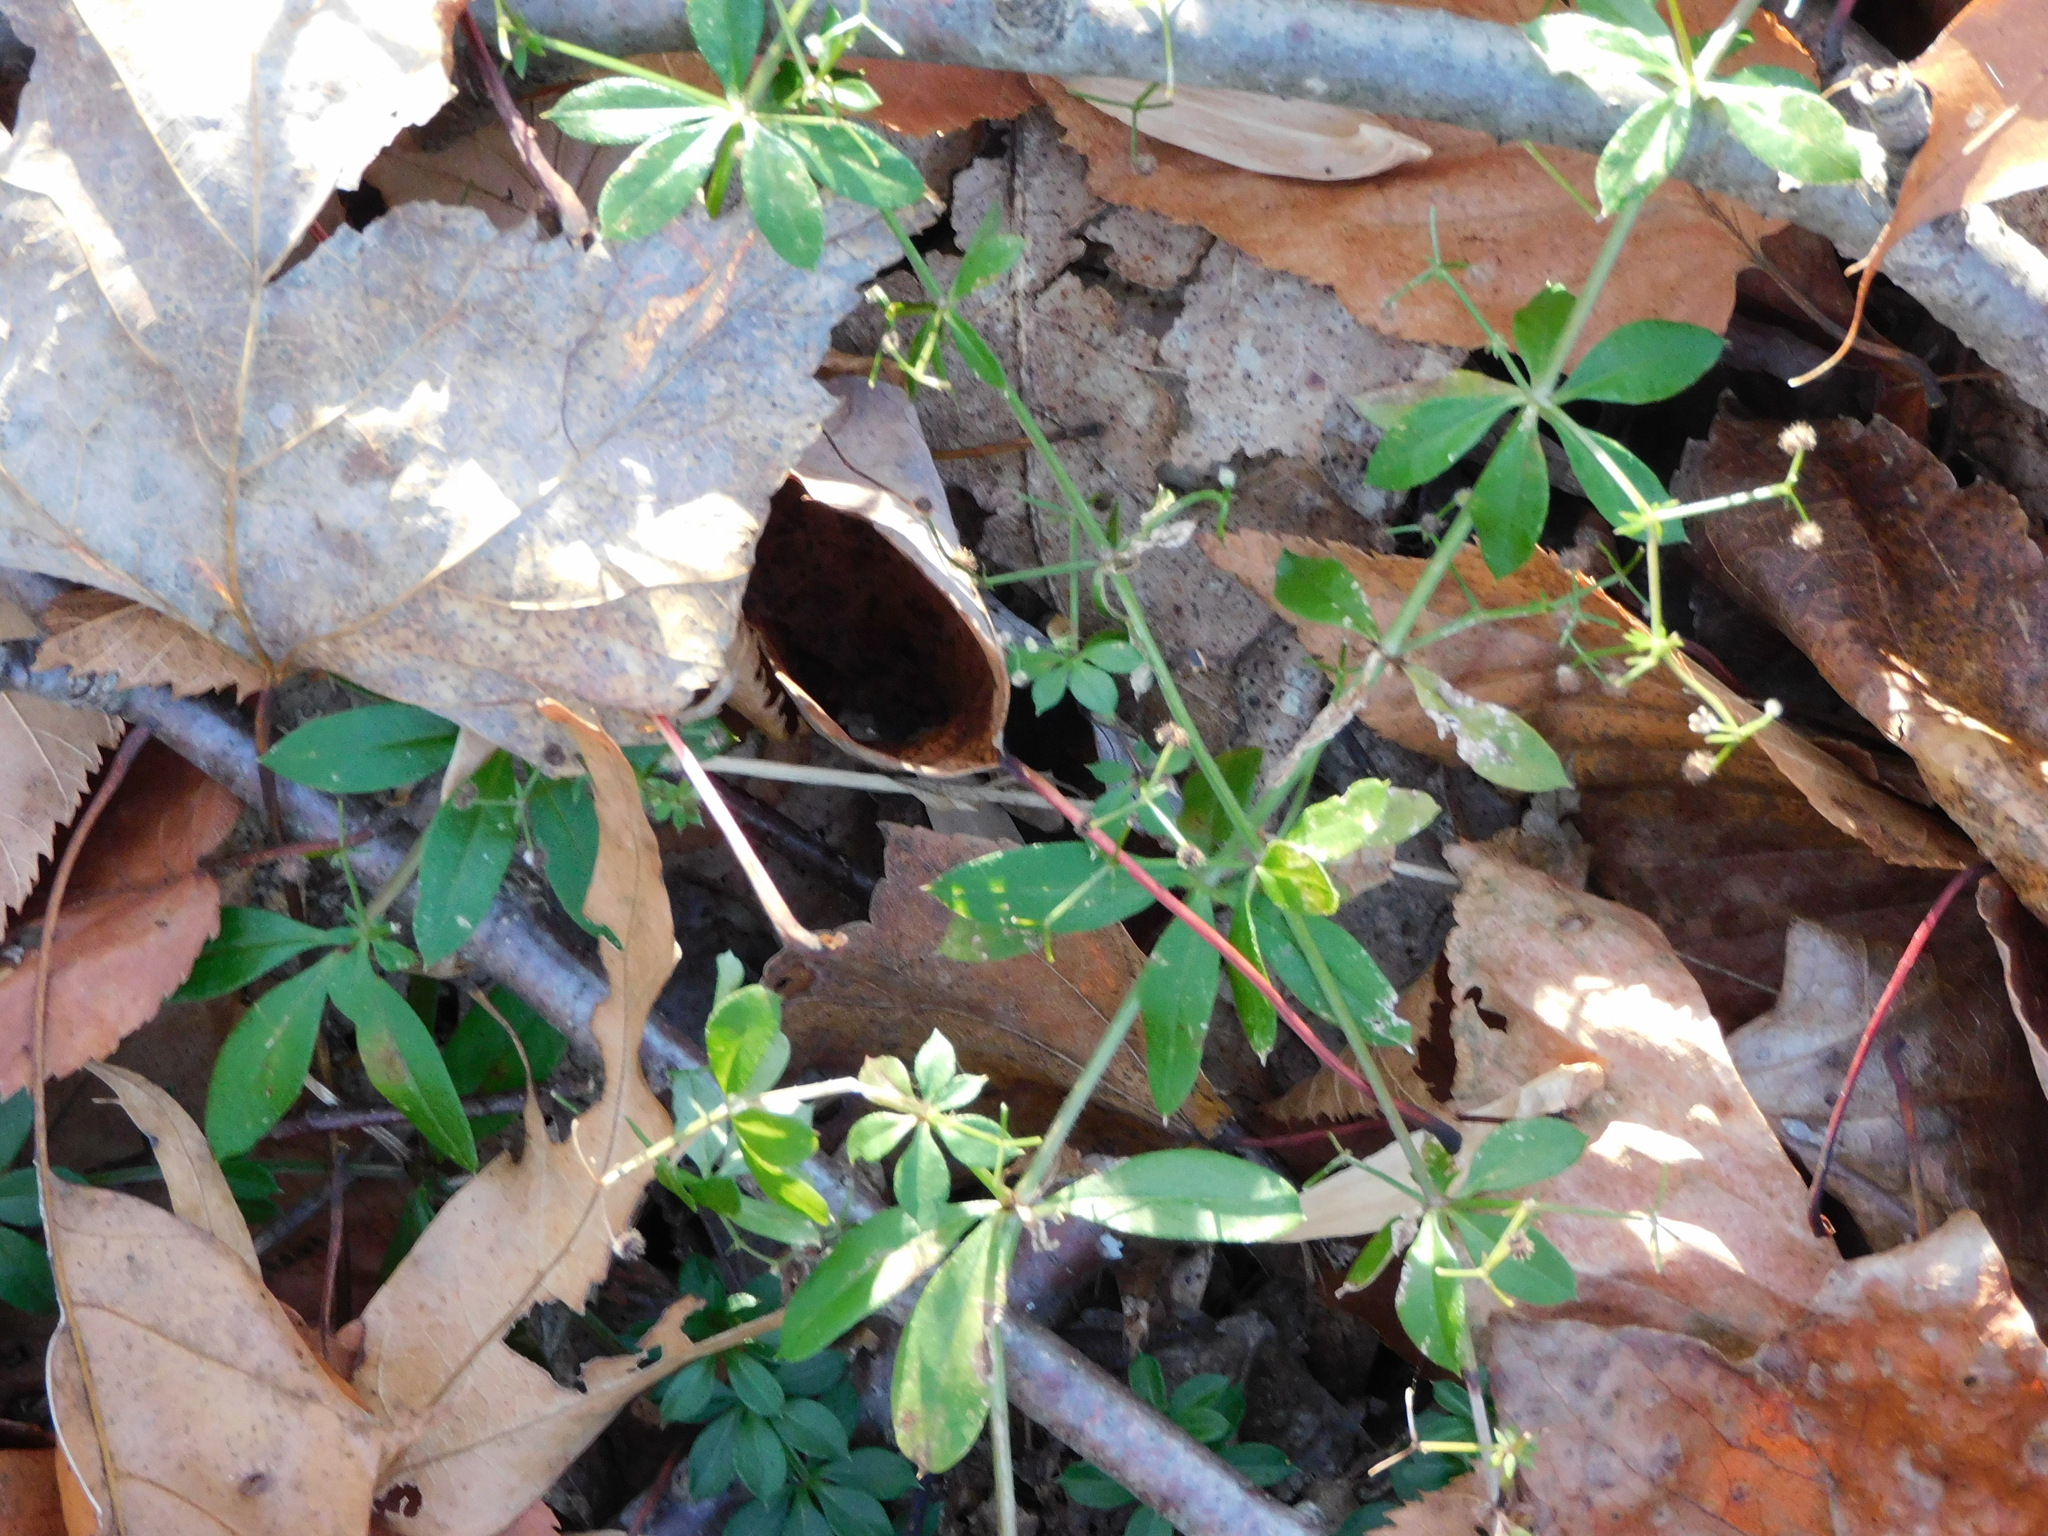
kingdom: Plantae
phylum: Tracheophyta
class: Magnoliopsida
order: Gentianales
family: Rubiaceae
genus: Galium
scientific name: Galium triflorum
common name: Fragrant bedstraw
